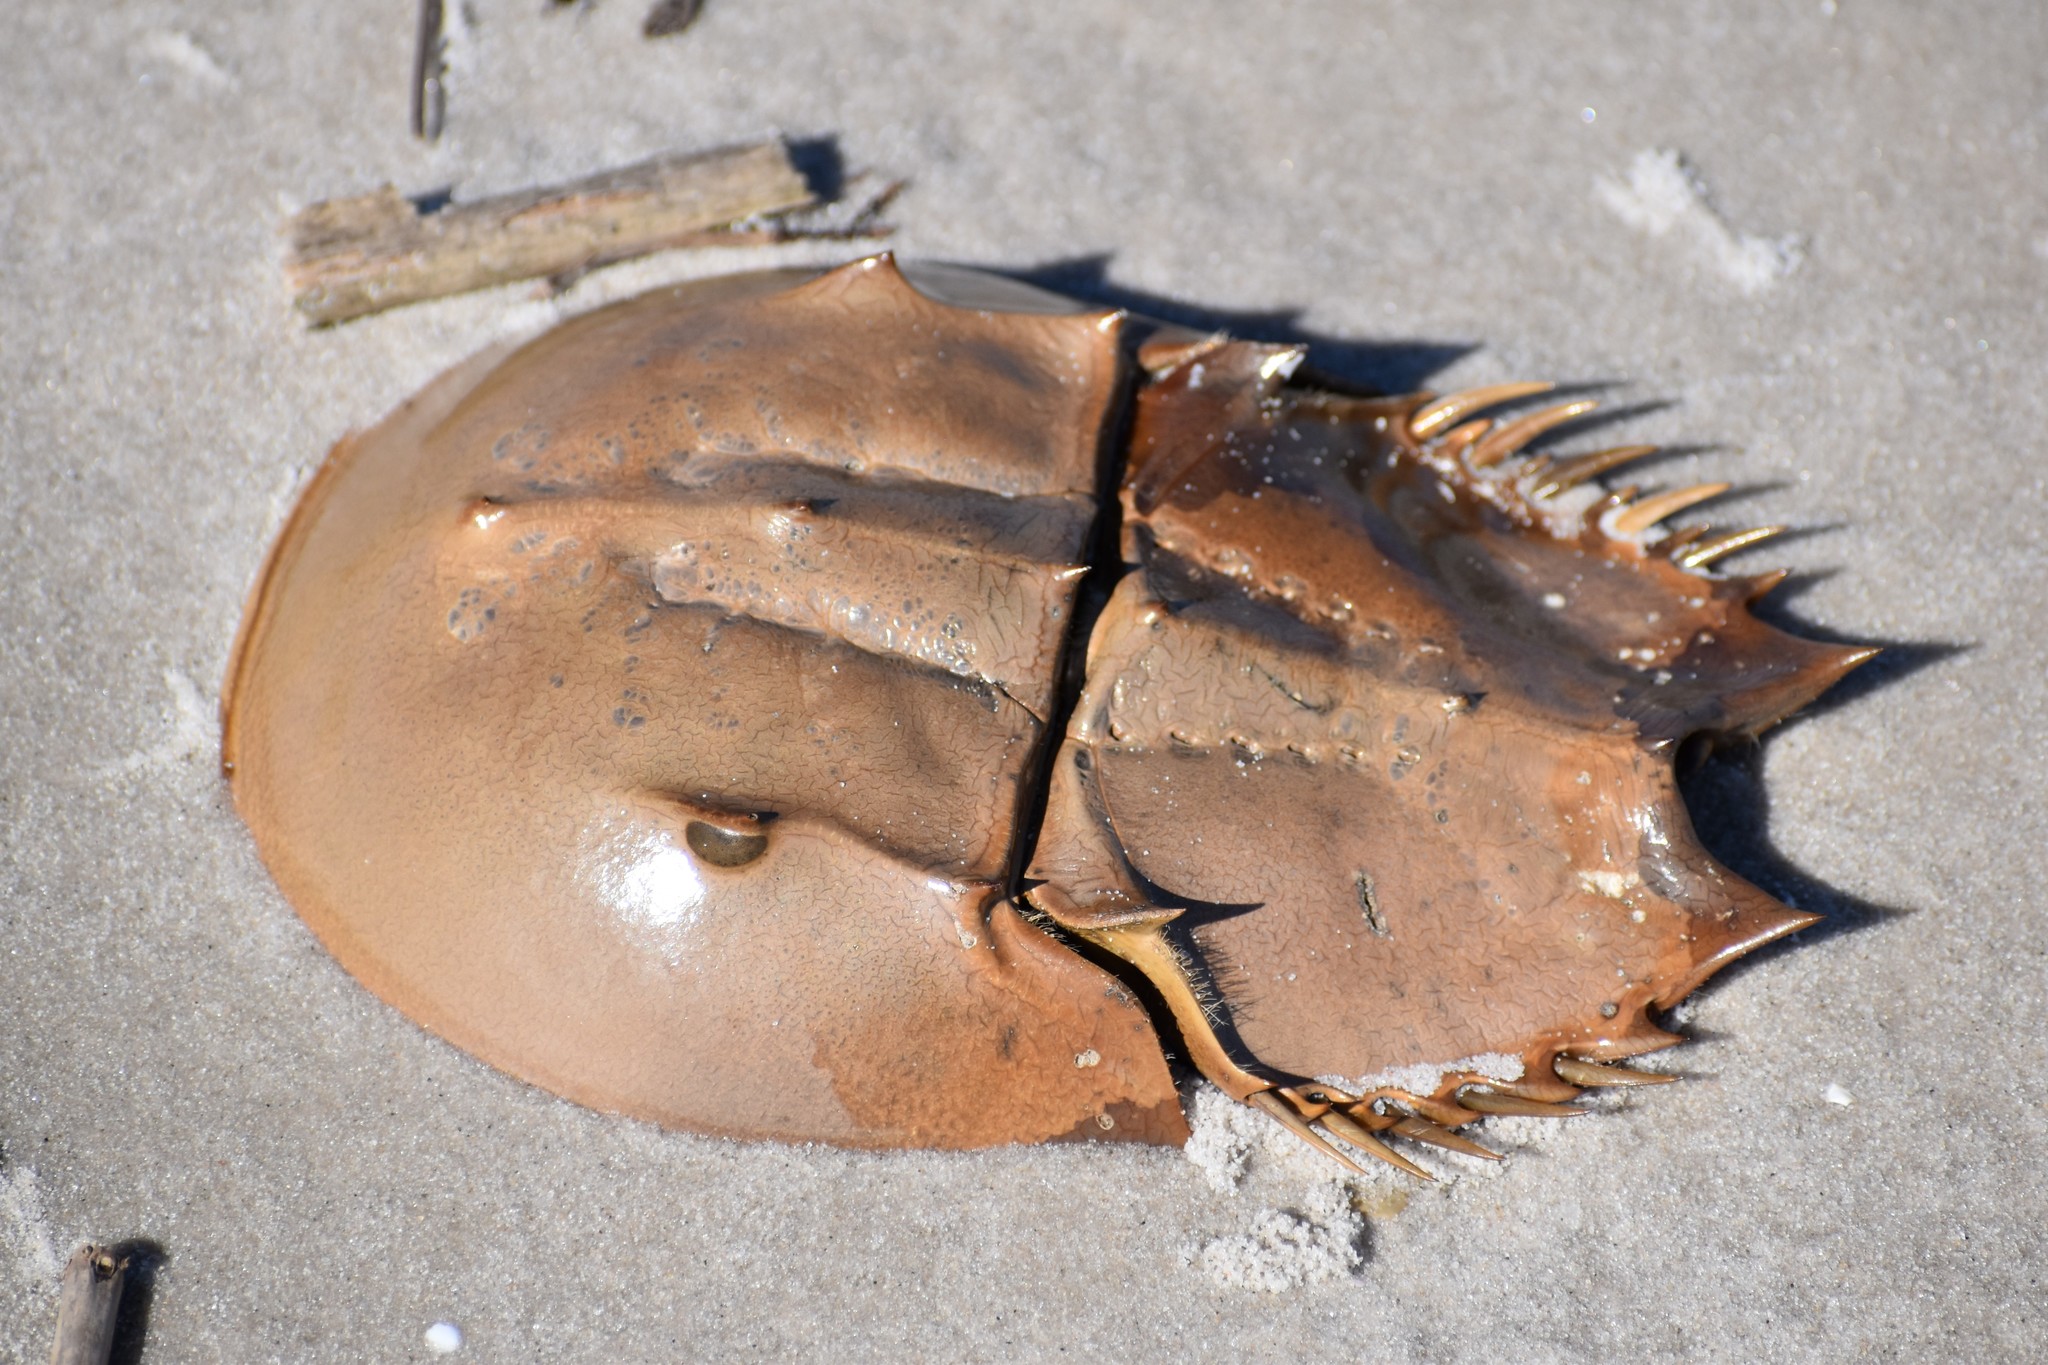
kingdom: Animalia
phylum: Arthropoda
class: Merostomata
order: Xiphosurida
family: Limulidae
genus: Limulus
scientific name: Limulus polyphemus
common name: Horseshoe crab
